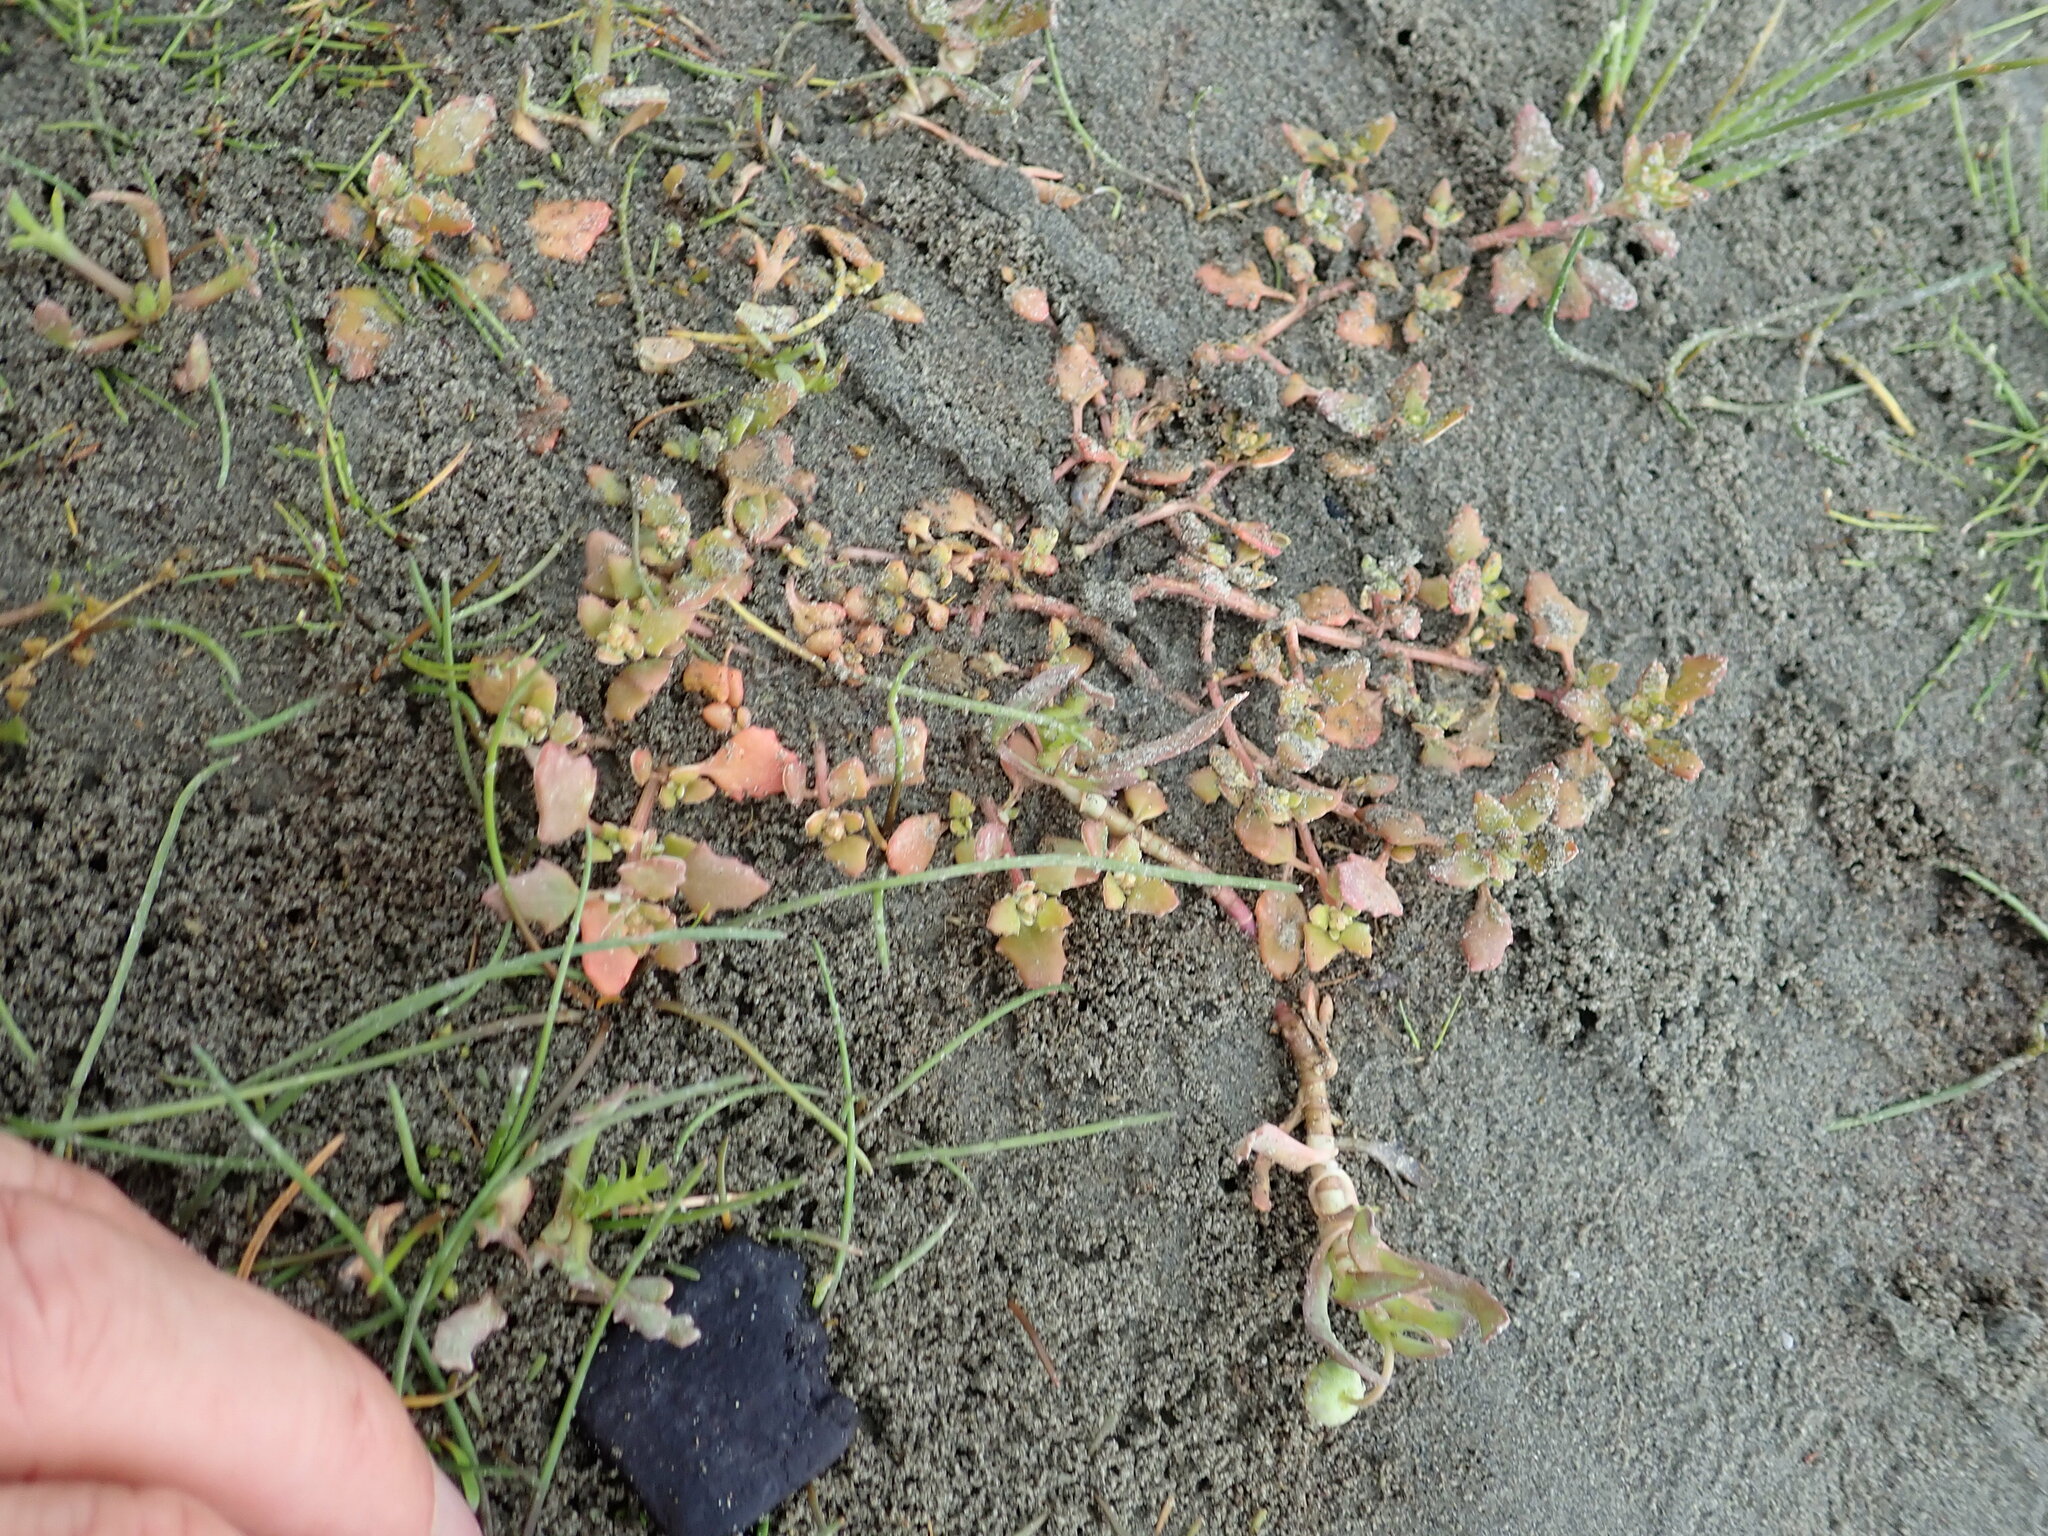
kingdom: Plantae
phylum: Tracheophyta
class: Magnoliopsida
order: Caryophyllales
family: Amaranthaceae
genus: Oxybasis
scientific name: Oxybasis ambigua
